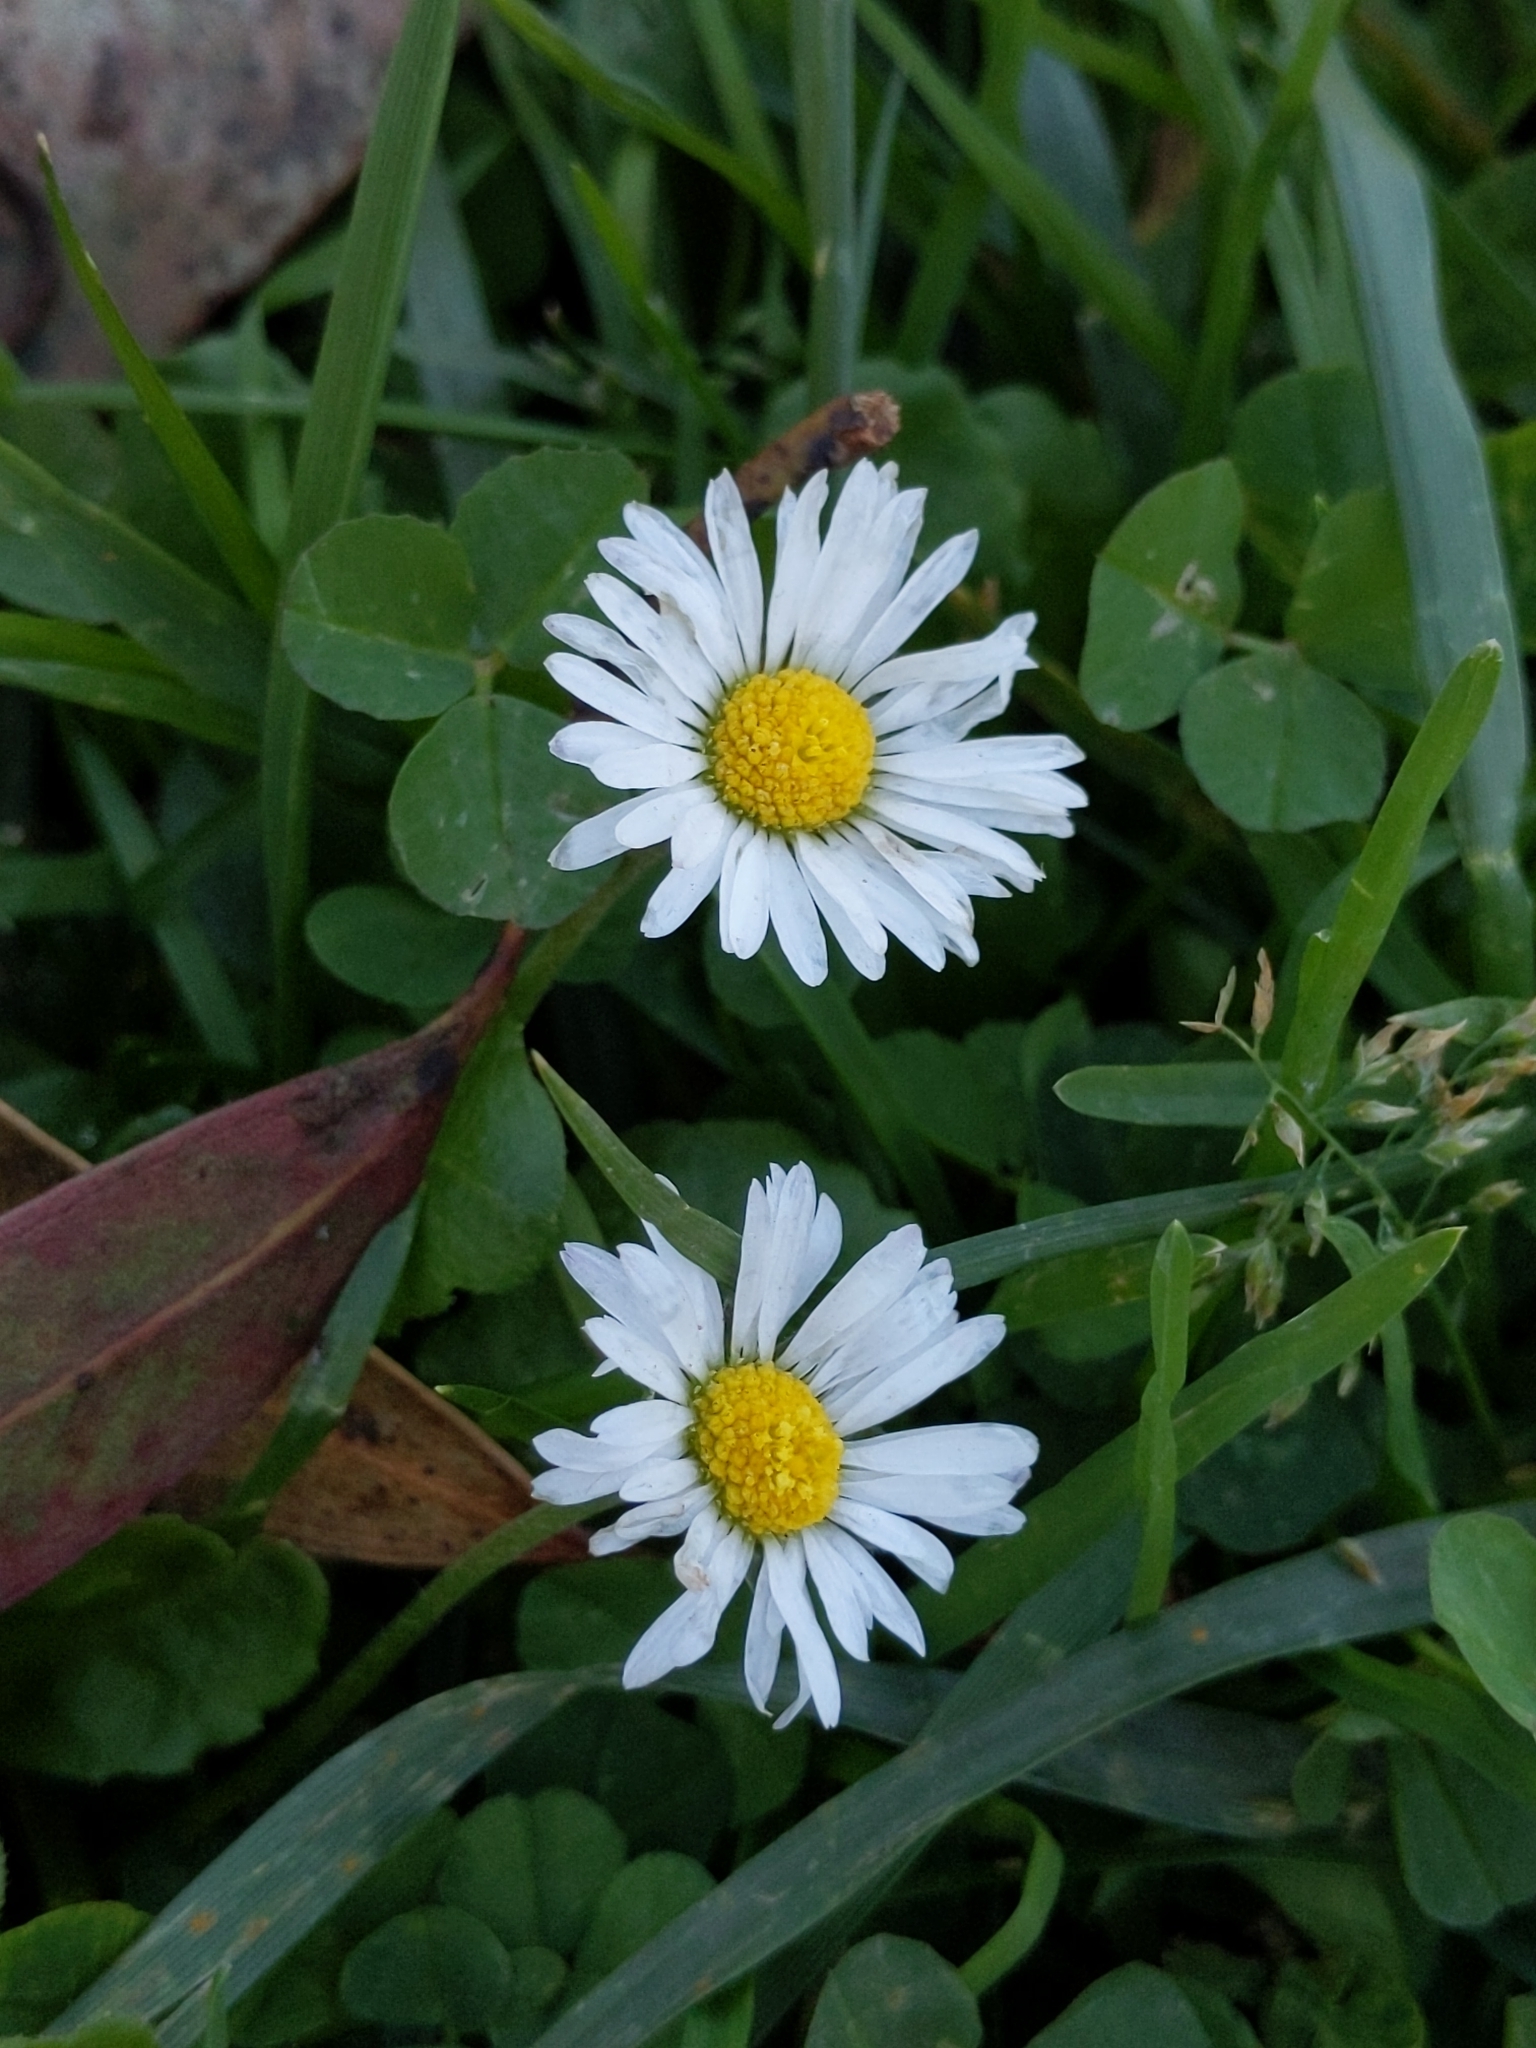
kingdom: Plantae
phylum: Tracheophyta
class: Magnoliopsida
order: Asterales
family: Asteraceae
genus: Bellis
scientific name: Bellis perennis
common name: Lawndaisy
